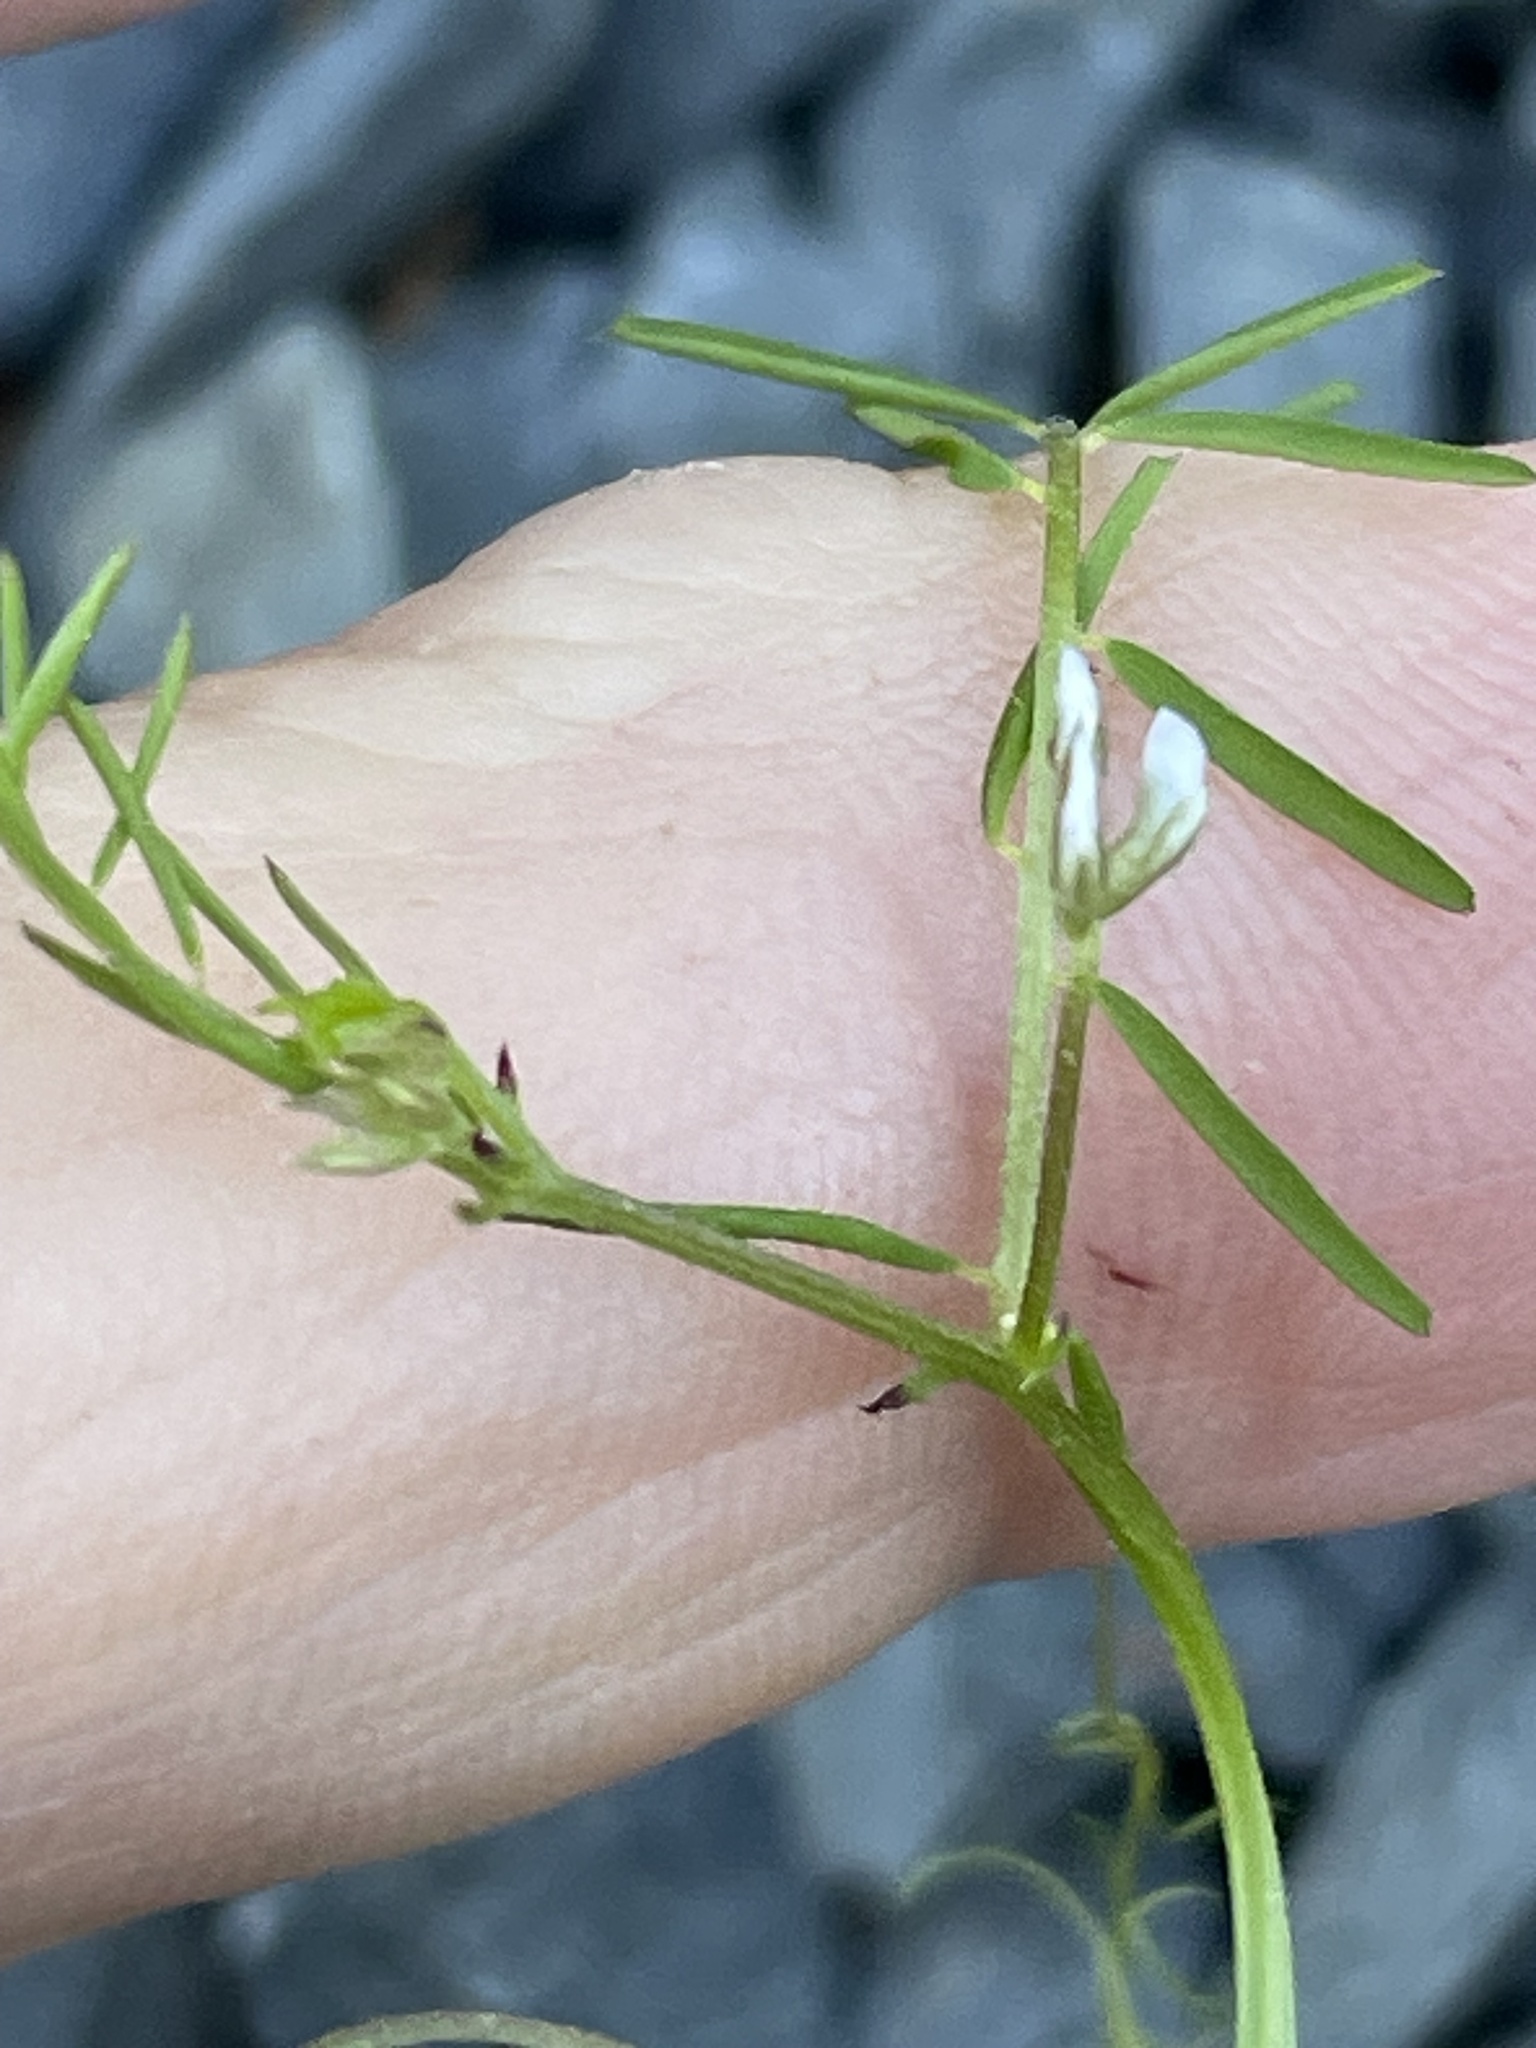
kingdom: Plantae
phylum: Tracheophyta
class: Magnoliopsida
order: Fabales
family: Fabaceae
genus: Vicia
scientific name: Vicia hirsuta
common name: Tiny vetch
